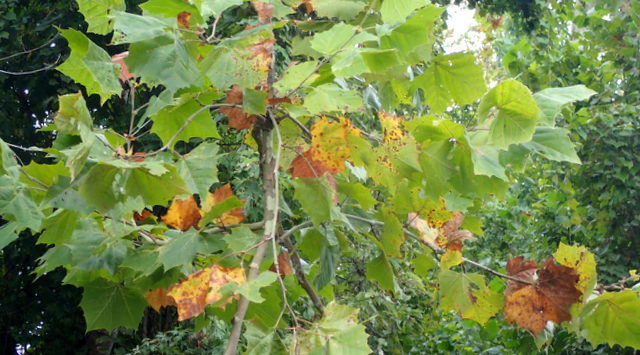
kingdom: Plantae
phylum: Tracheophyta
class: Magnoliopsida
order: Proteales
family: Platanaceae
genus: Platanus
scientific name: Platanus occidentalis
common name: American sycamore
